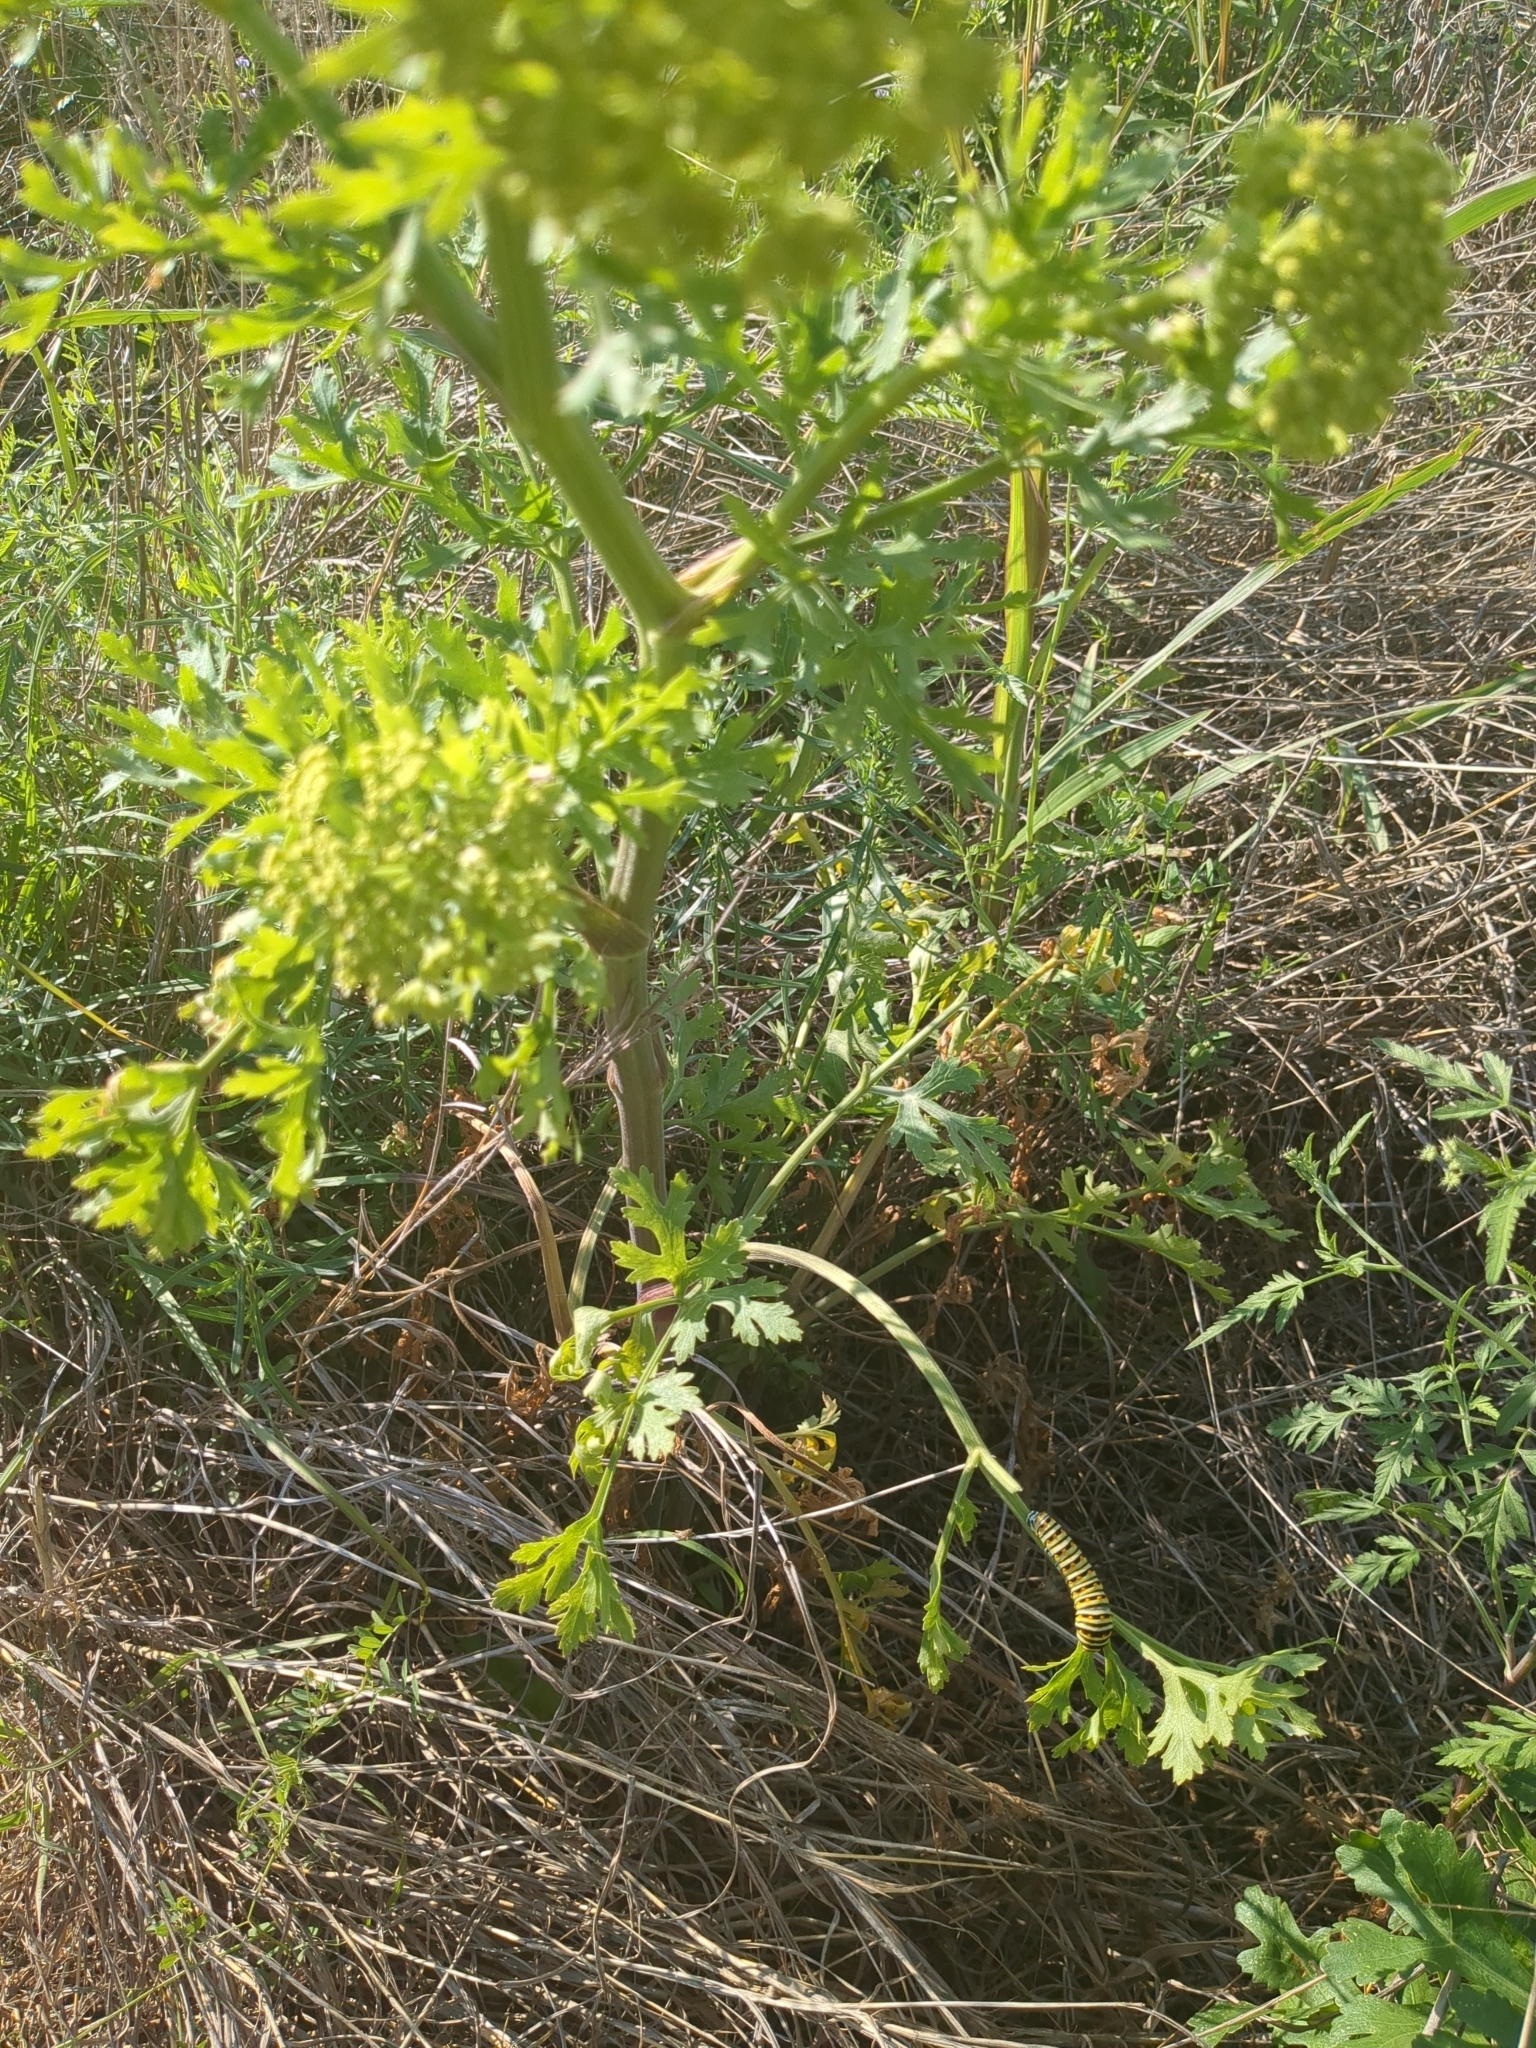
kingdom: Animalia
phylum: Arthropoda
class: Insecta
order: Lepidoptera
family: Papilionidae
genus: Papilio
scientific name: Papilio polyxenes
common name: Black swallowtail
